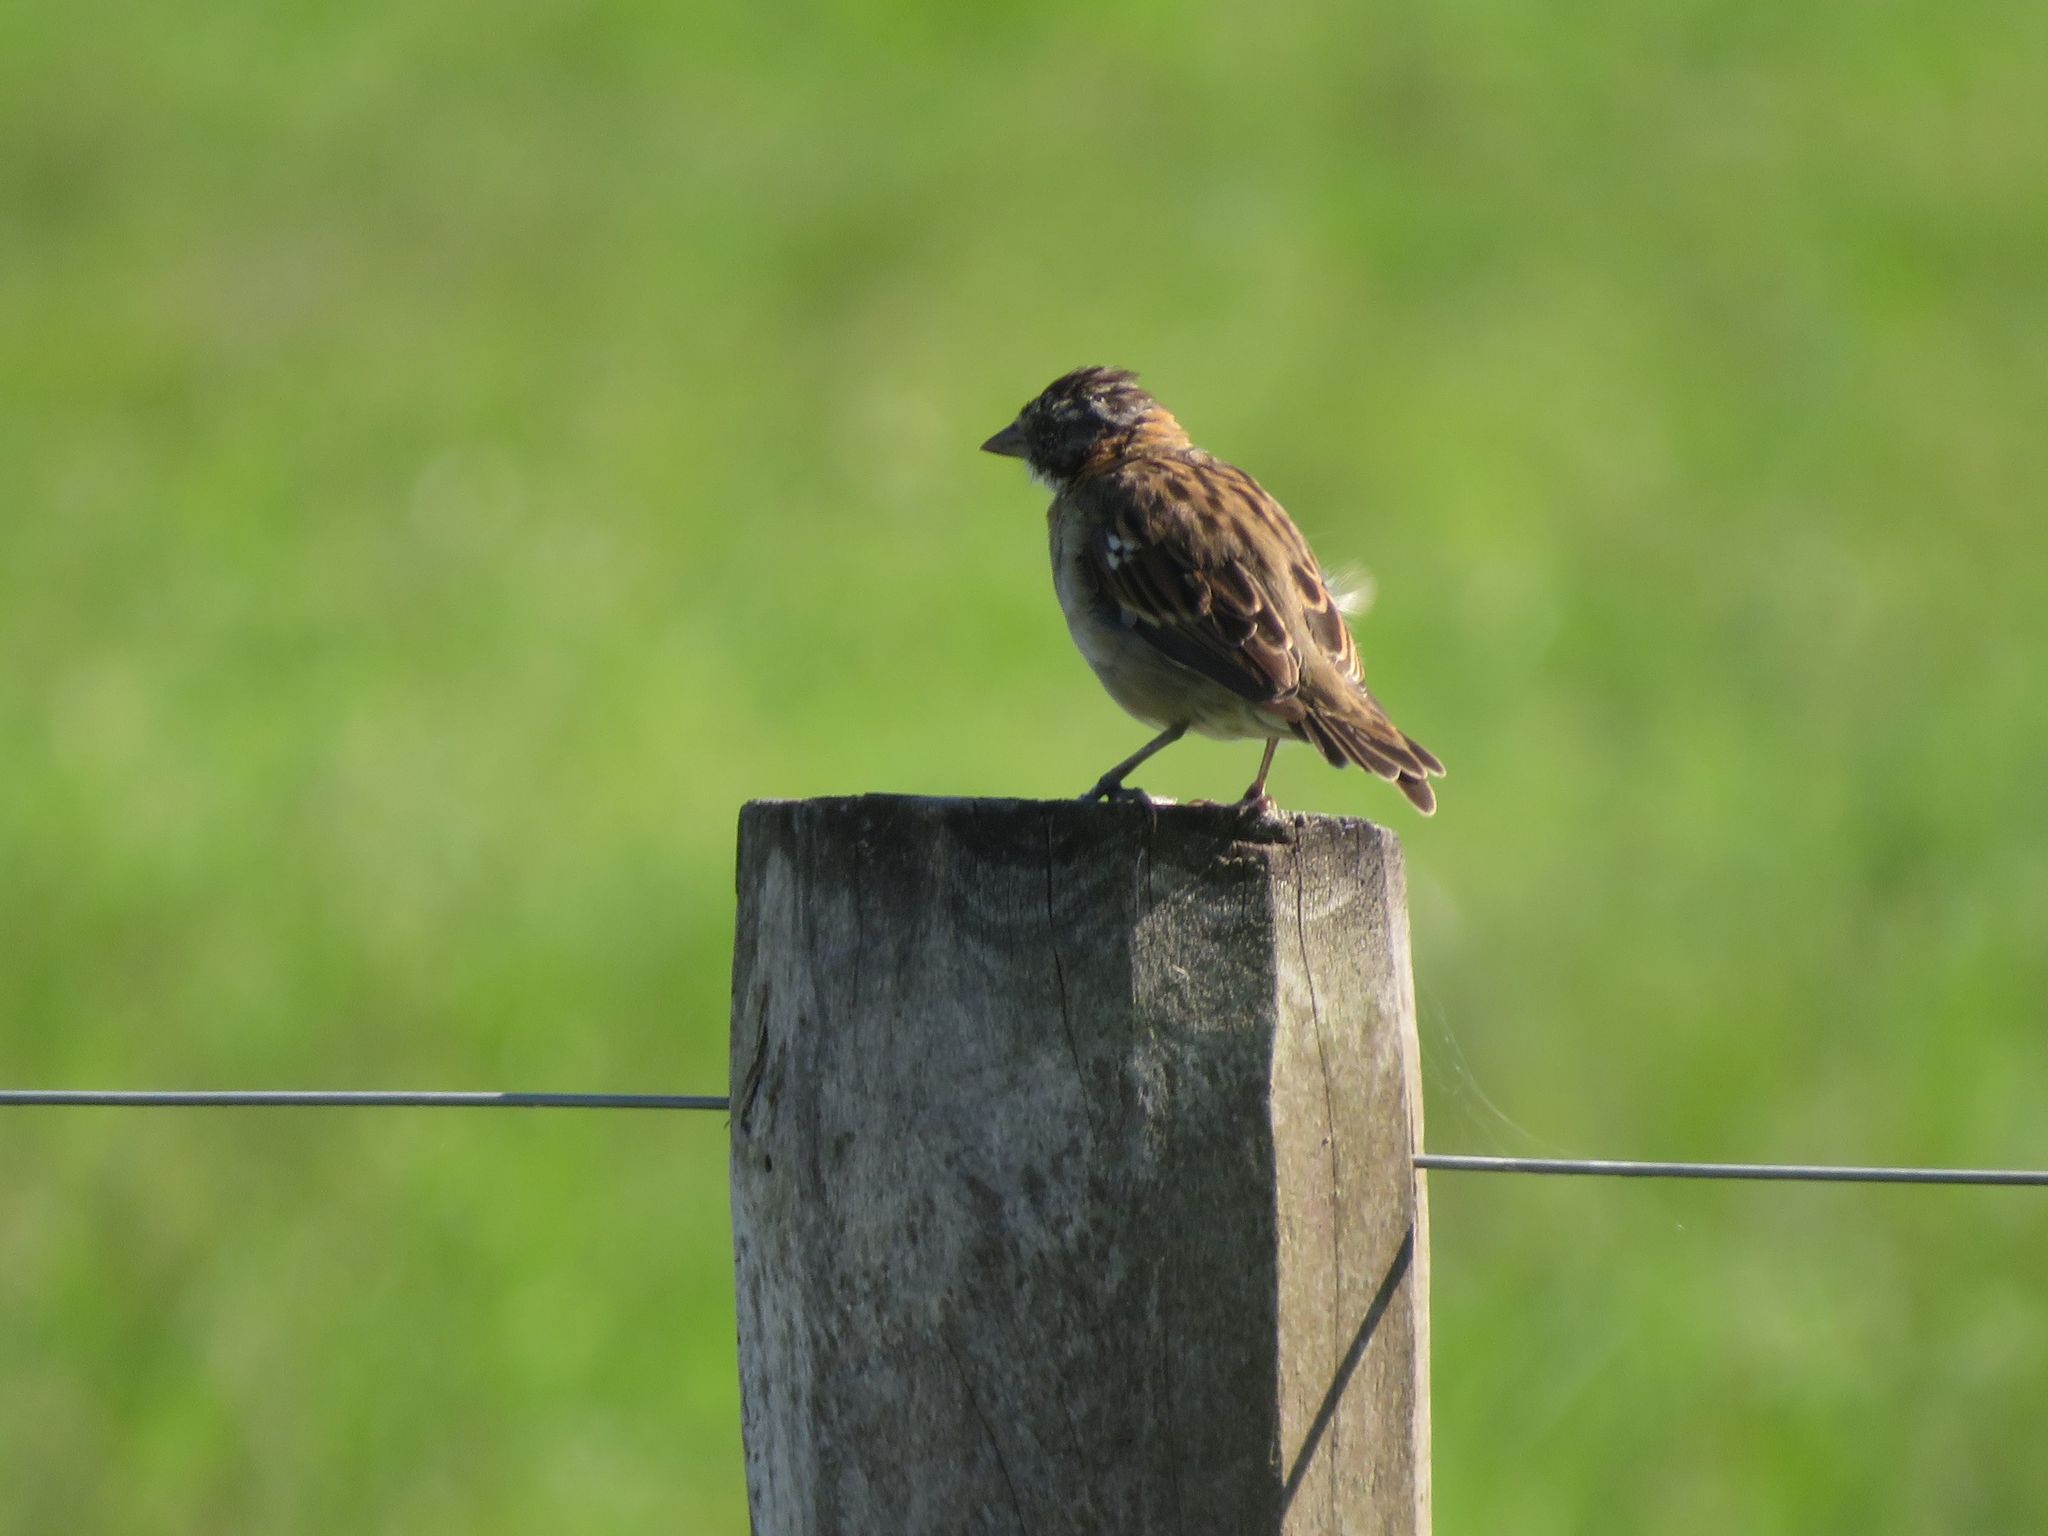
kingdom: Animalia
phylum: Chordata
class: Aves
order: Passeriformes
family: Passerellidae
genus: Zonotrichia
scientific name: Zonotrichia capensis
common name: Rufous-collared sparrow
